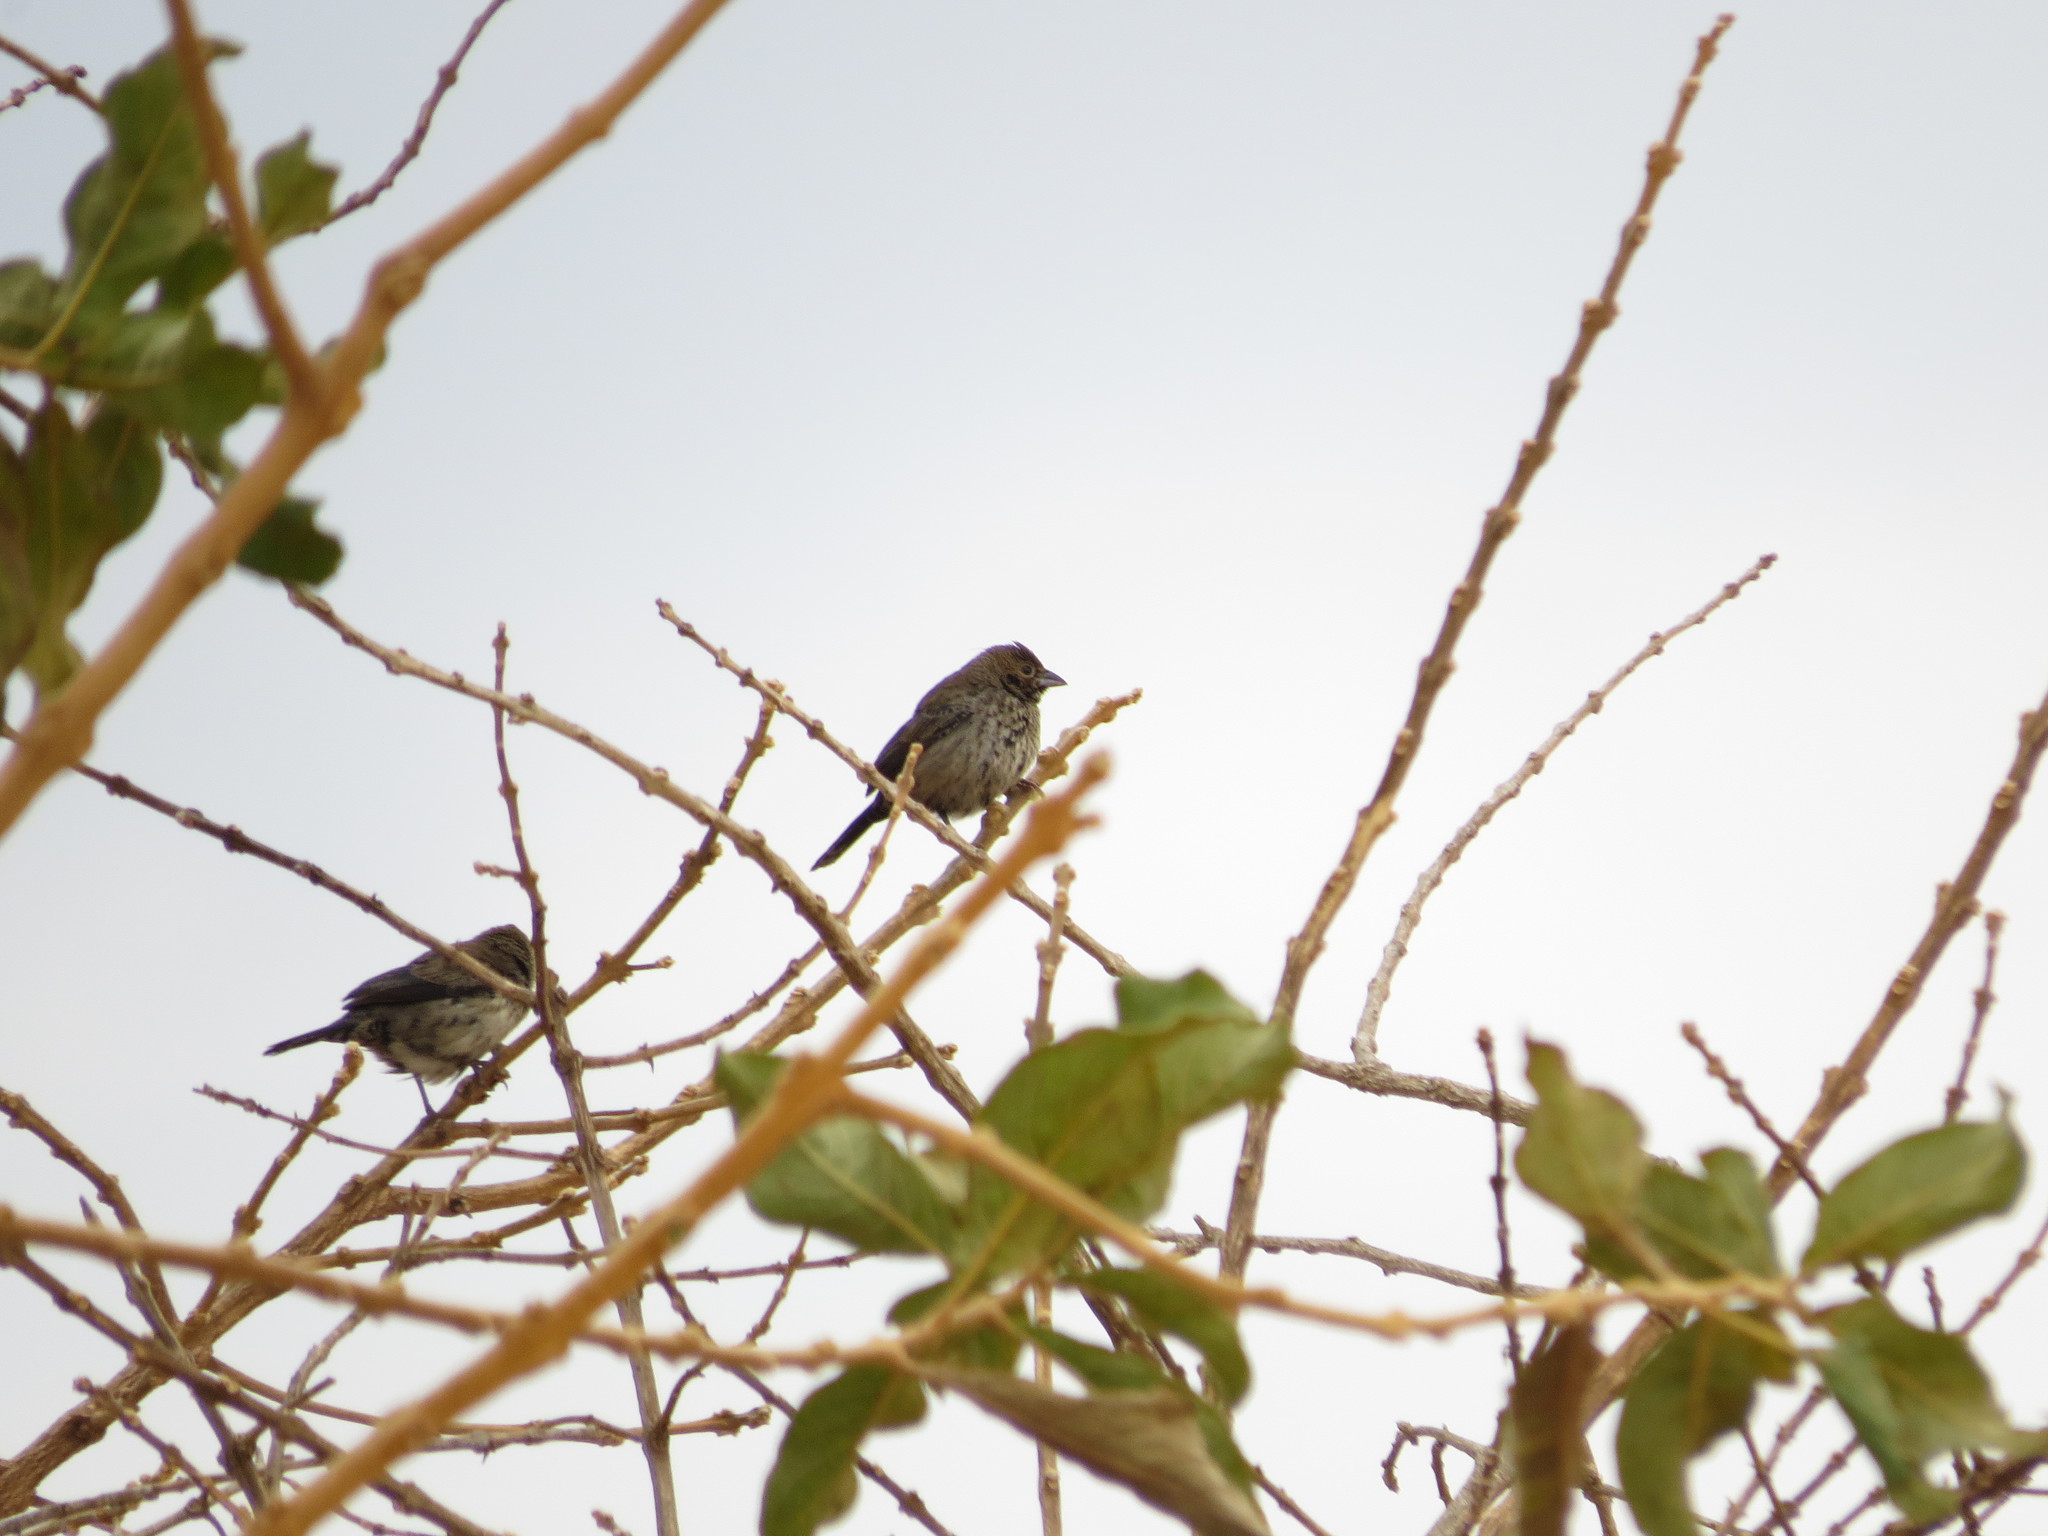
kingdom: Animalia
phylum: Chordata
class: Aves
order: Passeriformes
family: Thraupidae
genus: Volatinia
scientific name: Volatinia jacarina
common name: Blue-black grassquit
